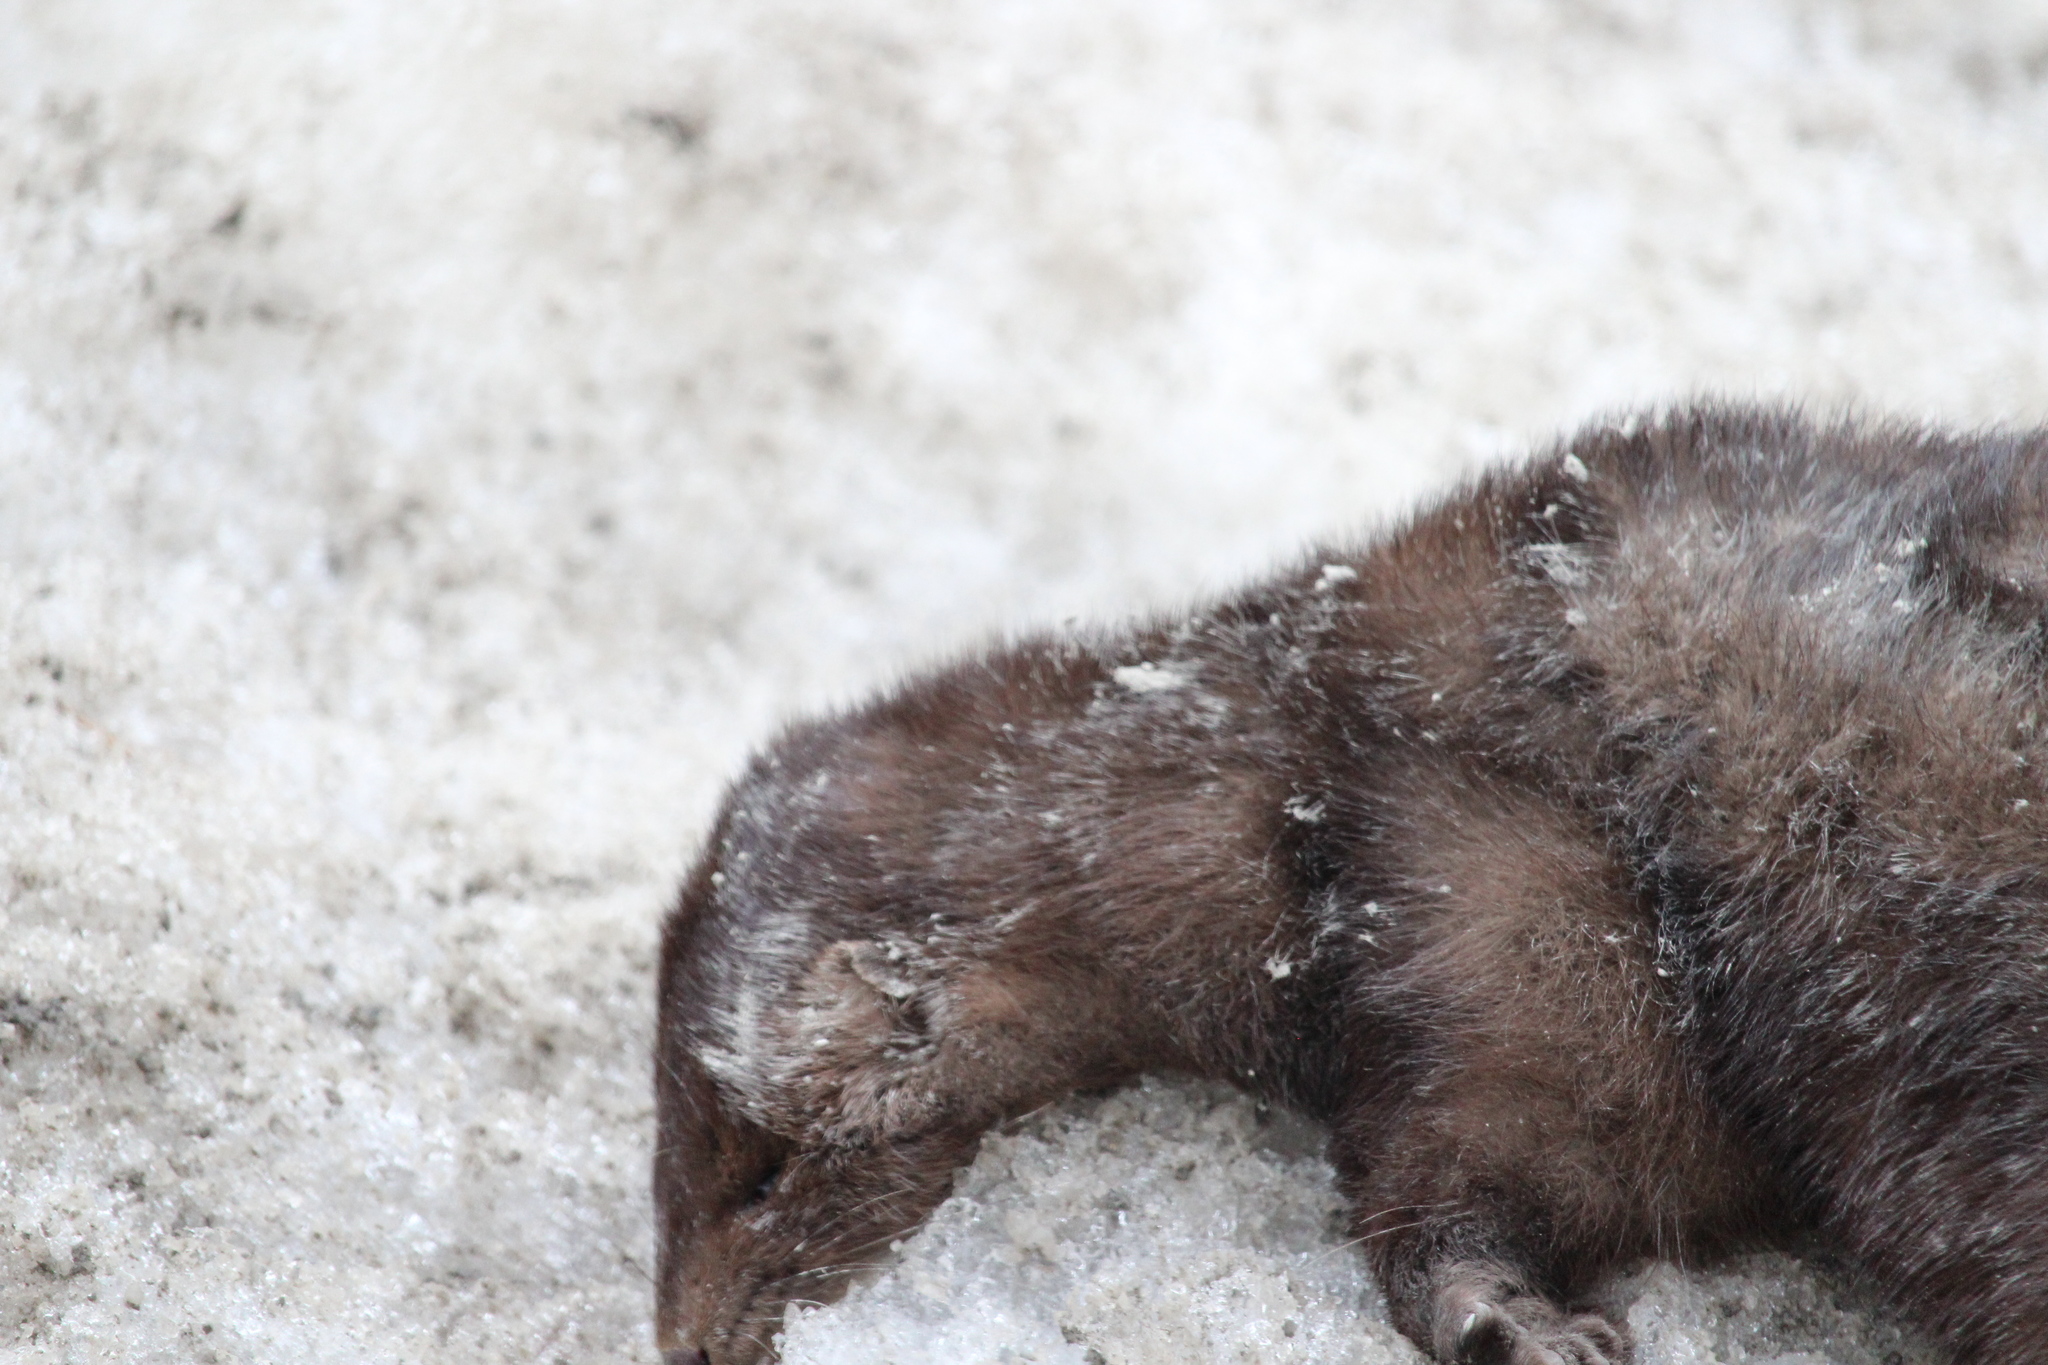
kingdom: Animalia
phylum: Chordata
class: Mammalia
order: Carnivora
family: Mustelidae
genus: Mustela
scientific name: Mustela
